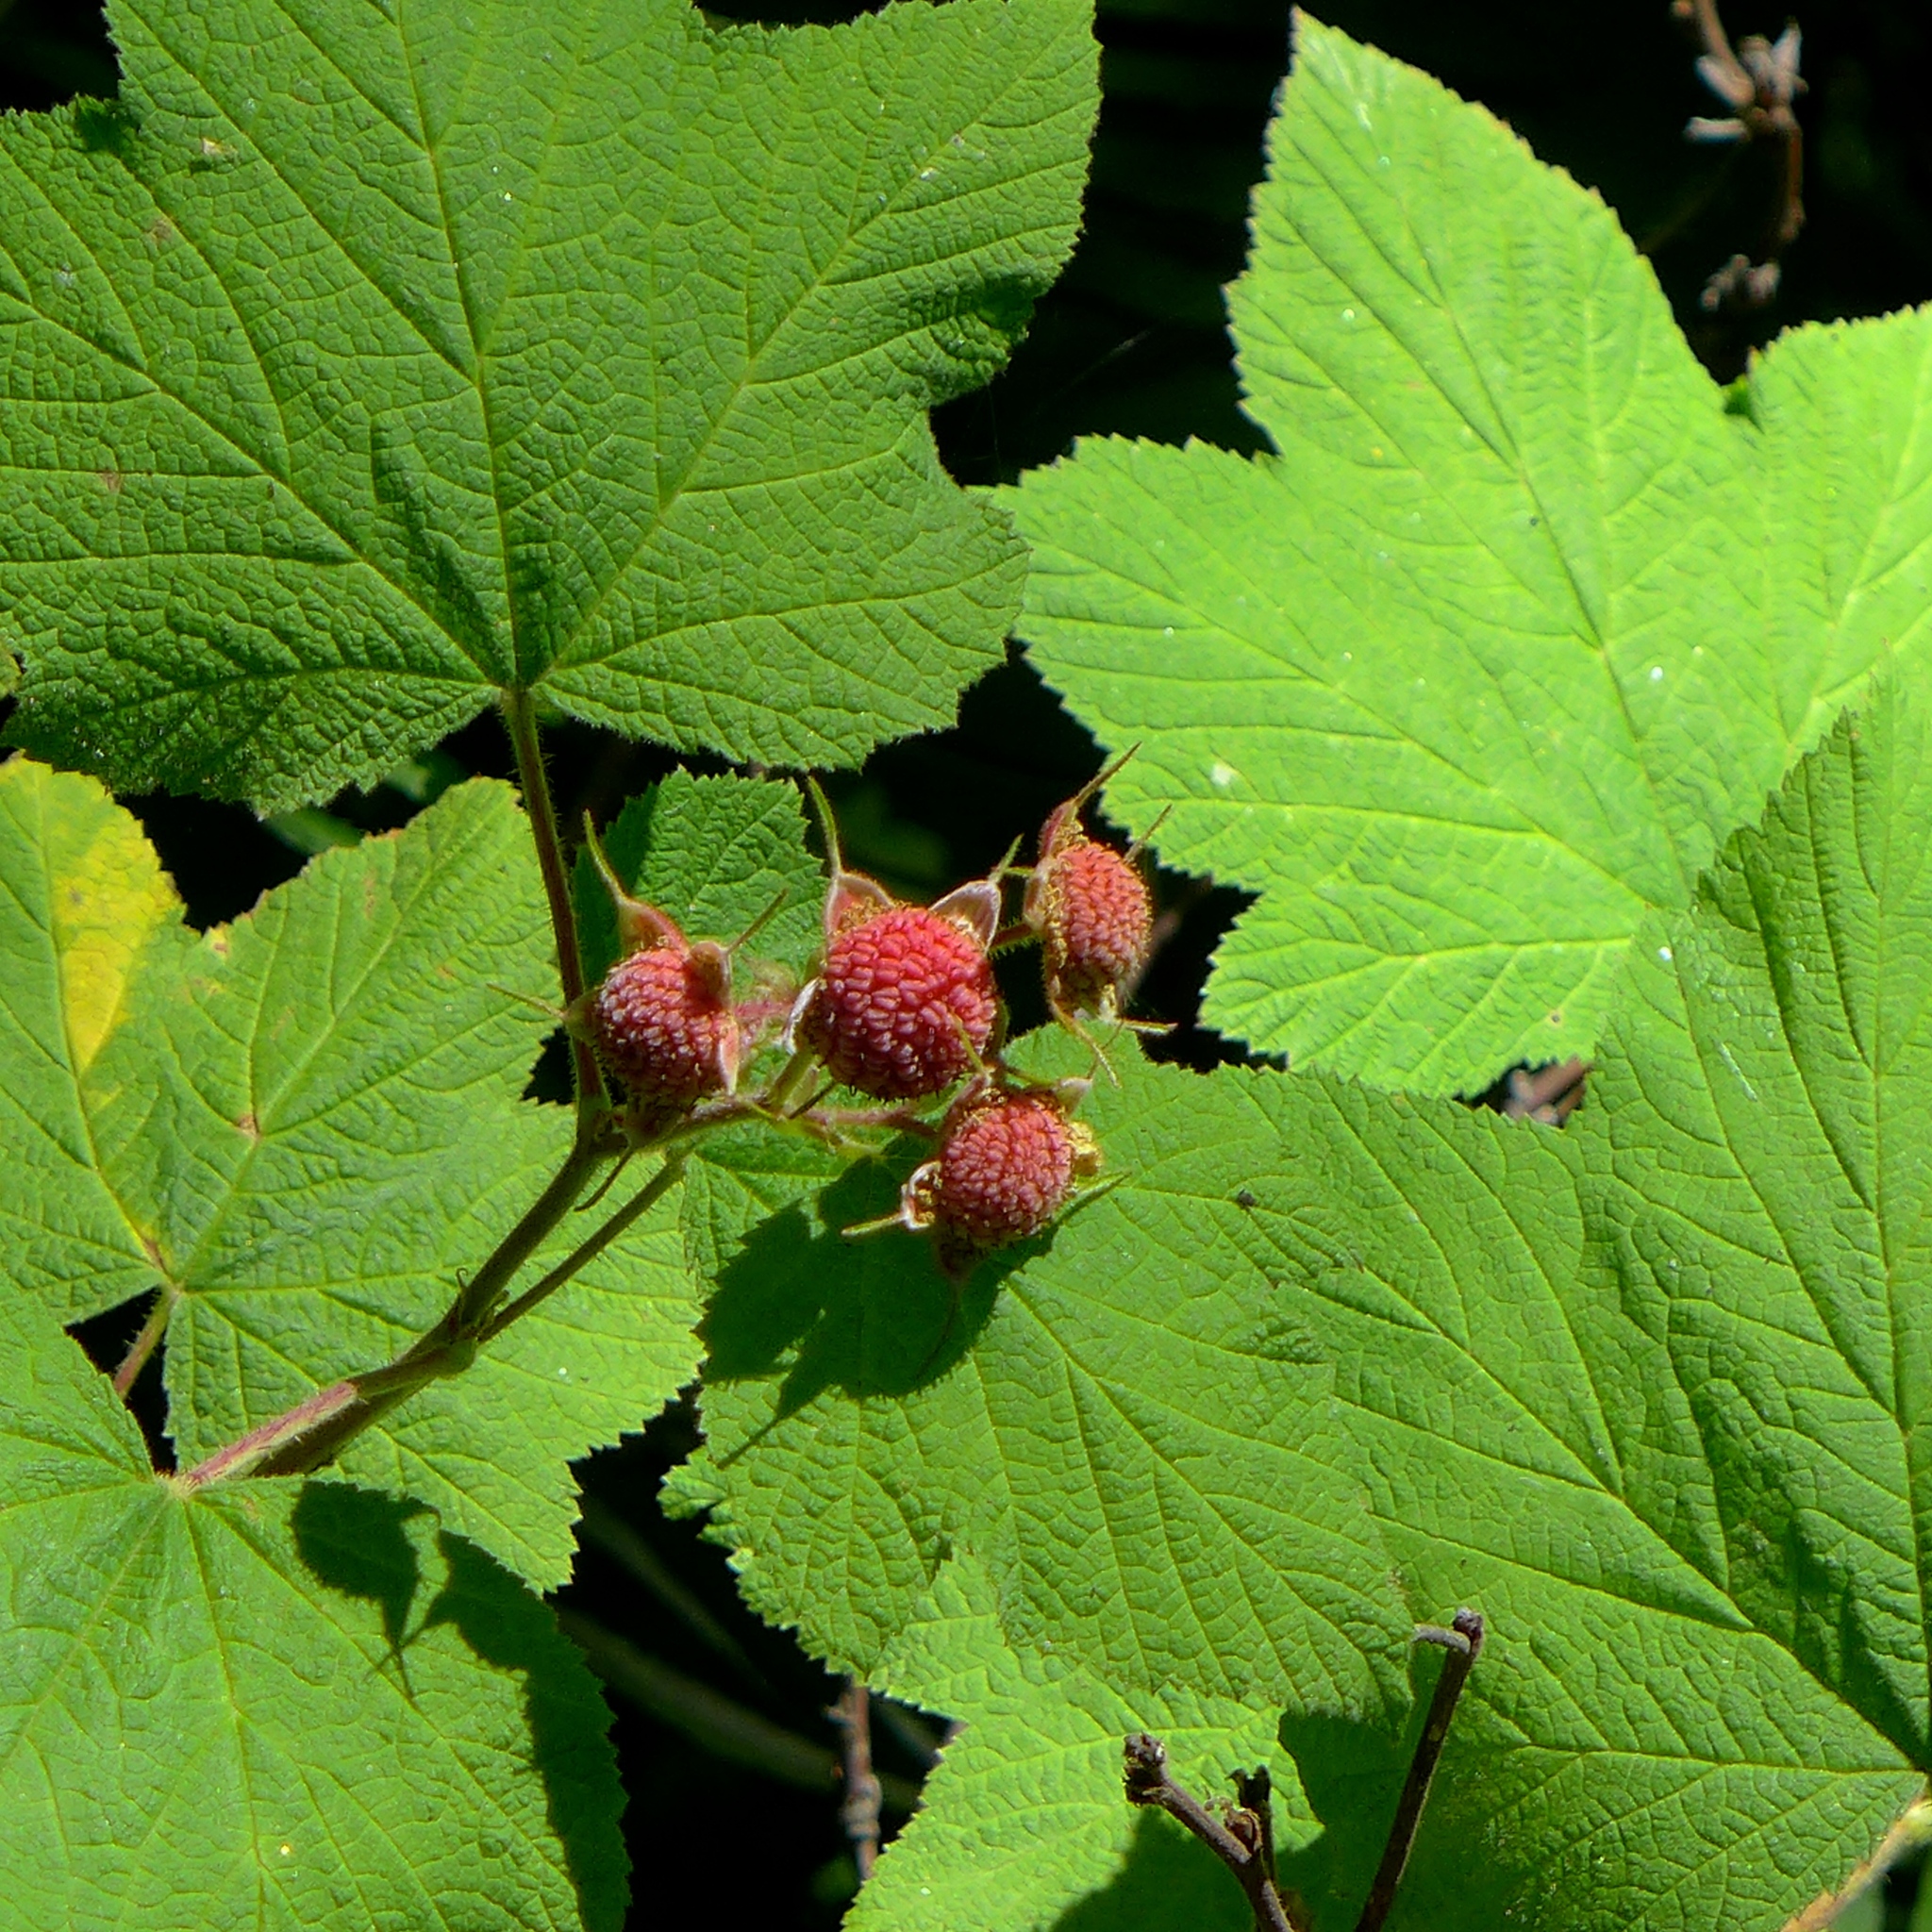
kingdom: Plantae
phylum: Tracheophyta
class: Magnoliopsida
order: Rosales
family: Rosaceae
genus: Rubus
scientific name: Rubus parviflorus
